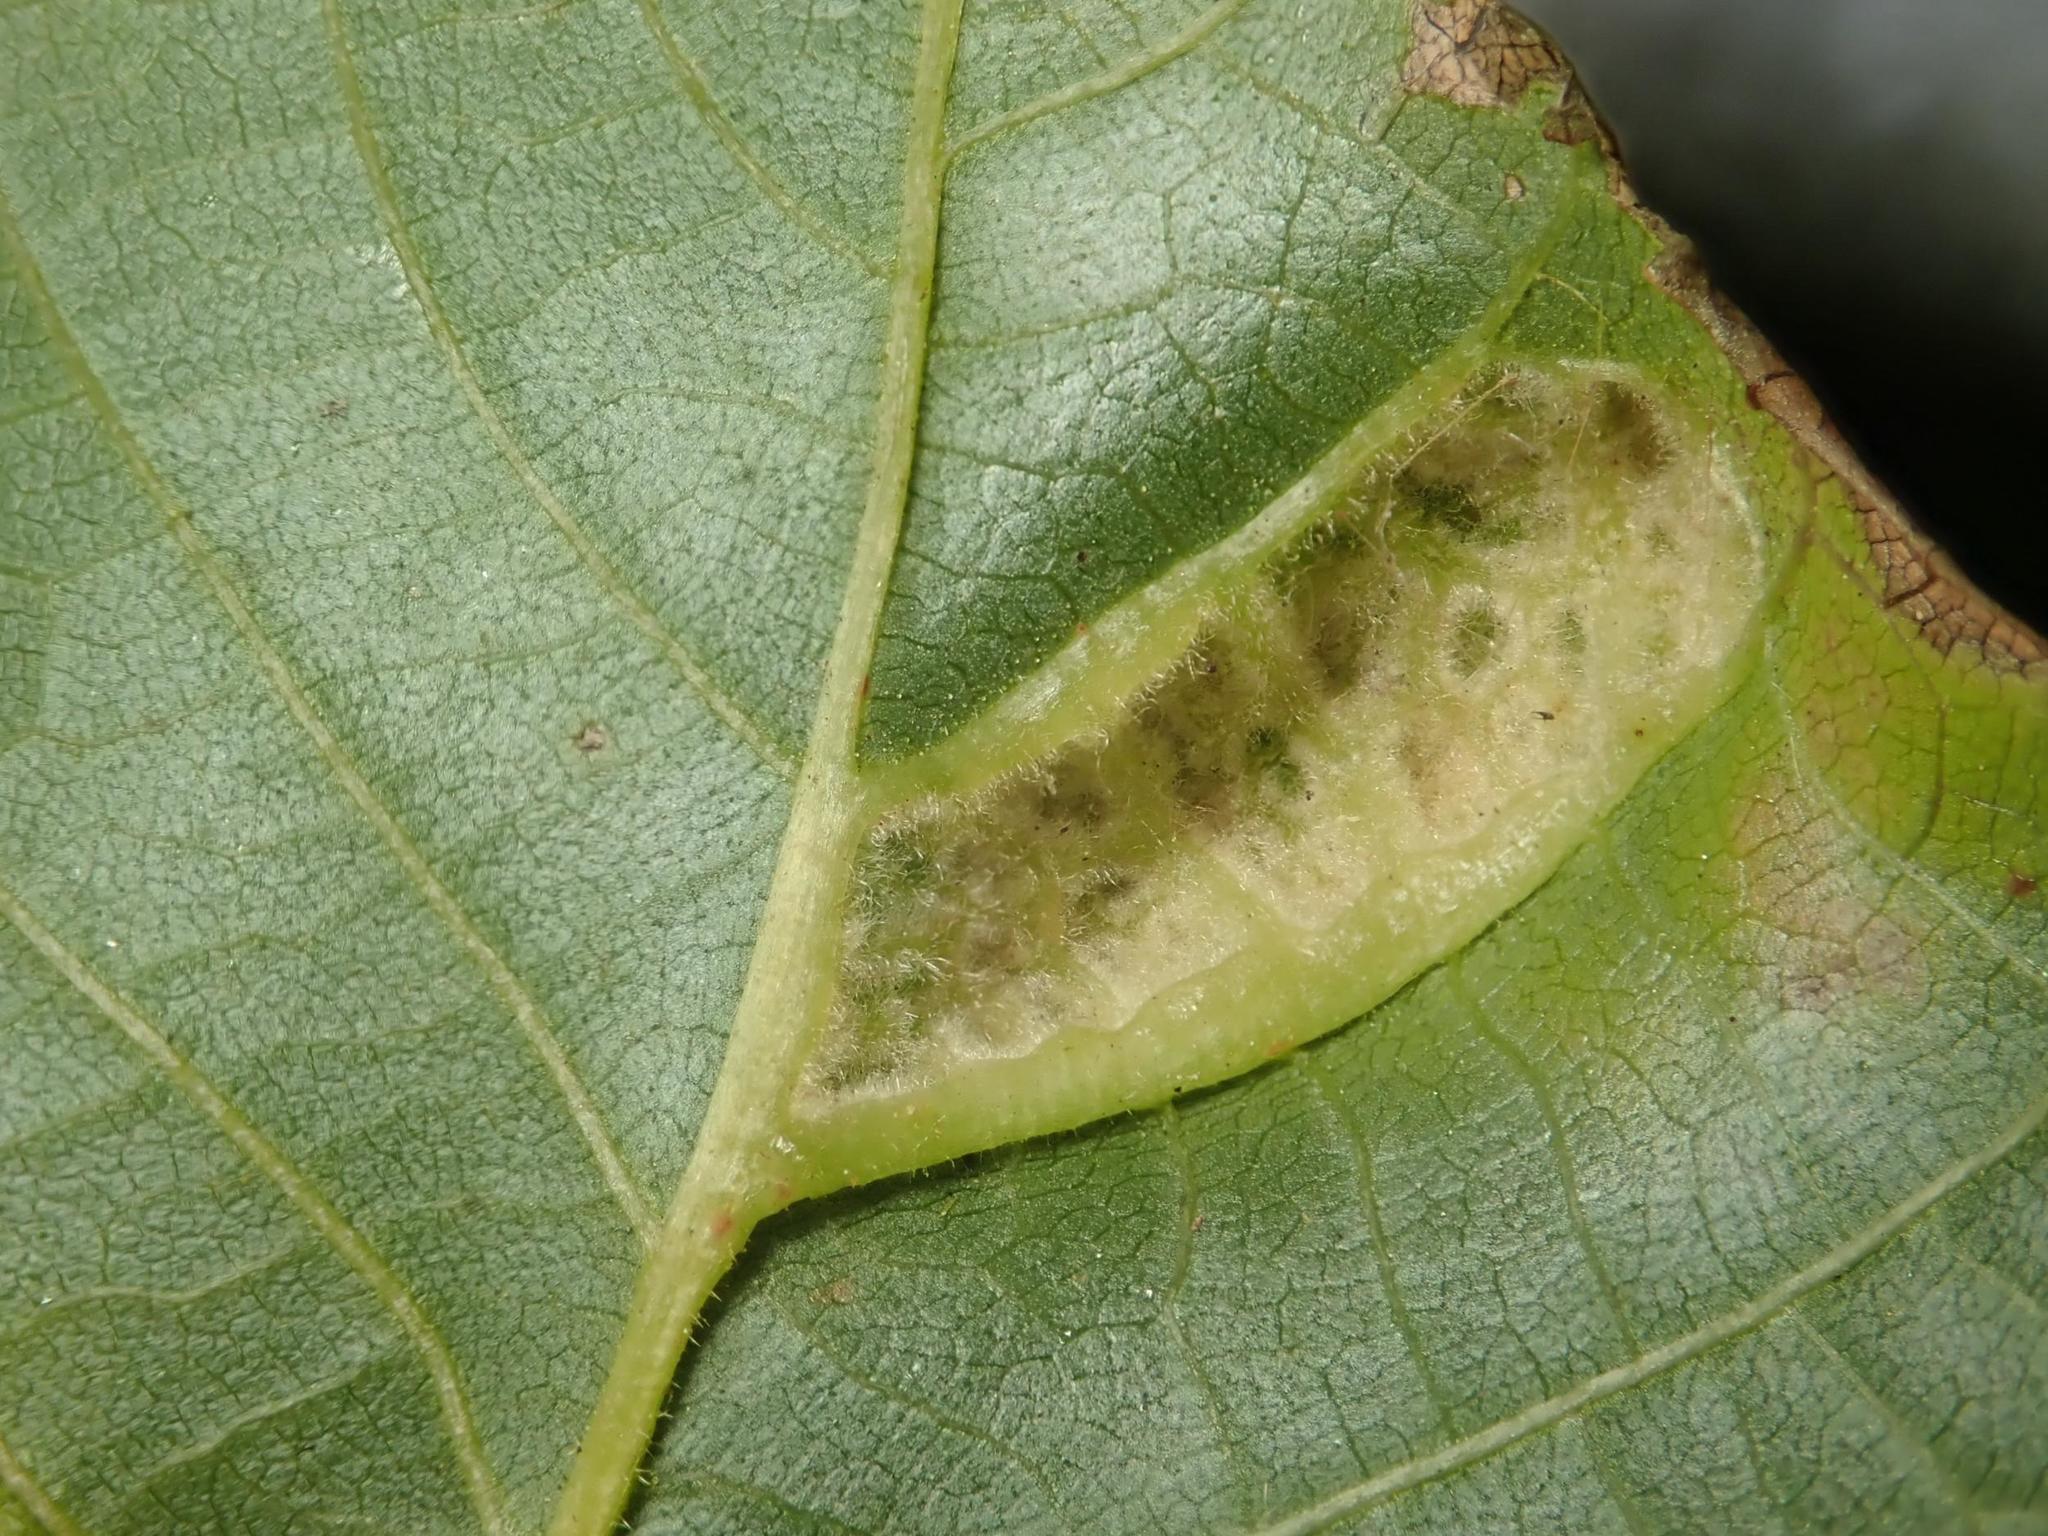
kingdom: Animalia
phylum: Arthropoda
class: Arachnida
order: Trombidiformes
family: Eriophyidae
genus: Aceria
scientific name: Aceria erinea
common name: Persian walnut erineum mite
